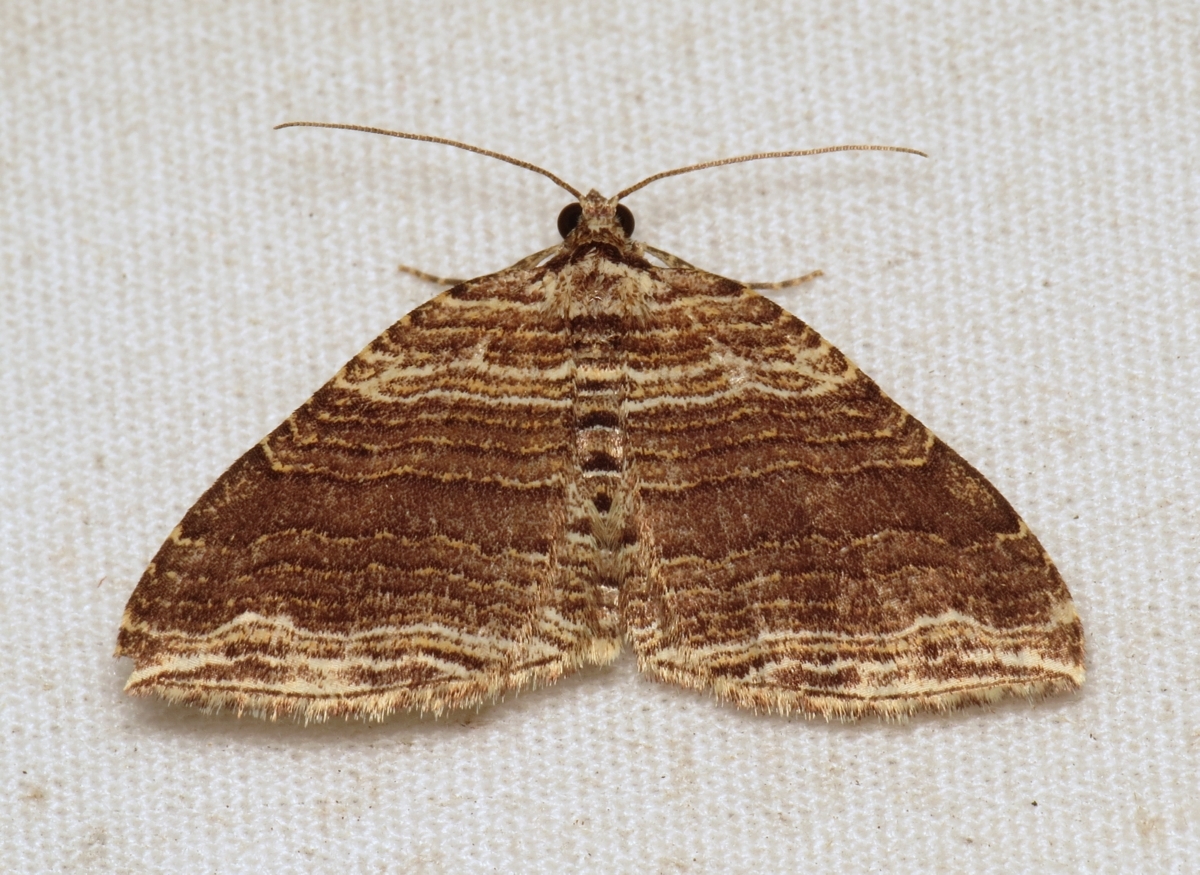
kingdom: Animalia
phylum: Arthropoda
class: Insecta
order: Lepidoptera
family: Geometridae
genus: Anticlea
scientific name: Anticlea multiferata
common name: Many-lined carpet
